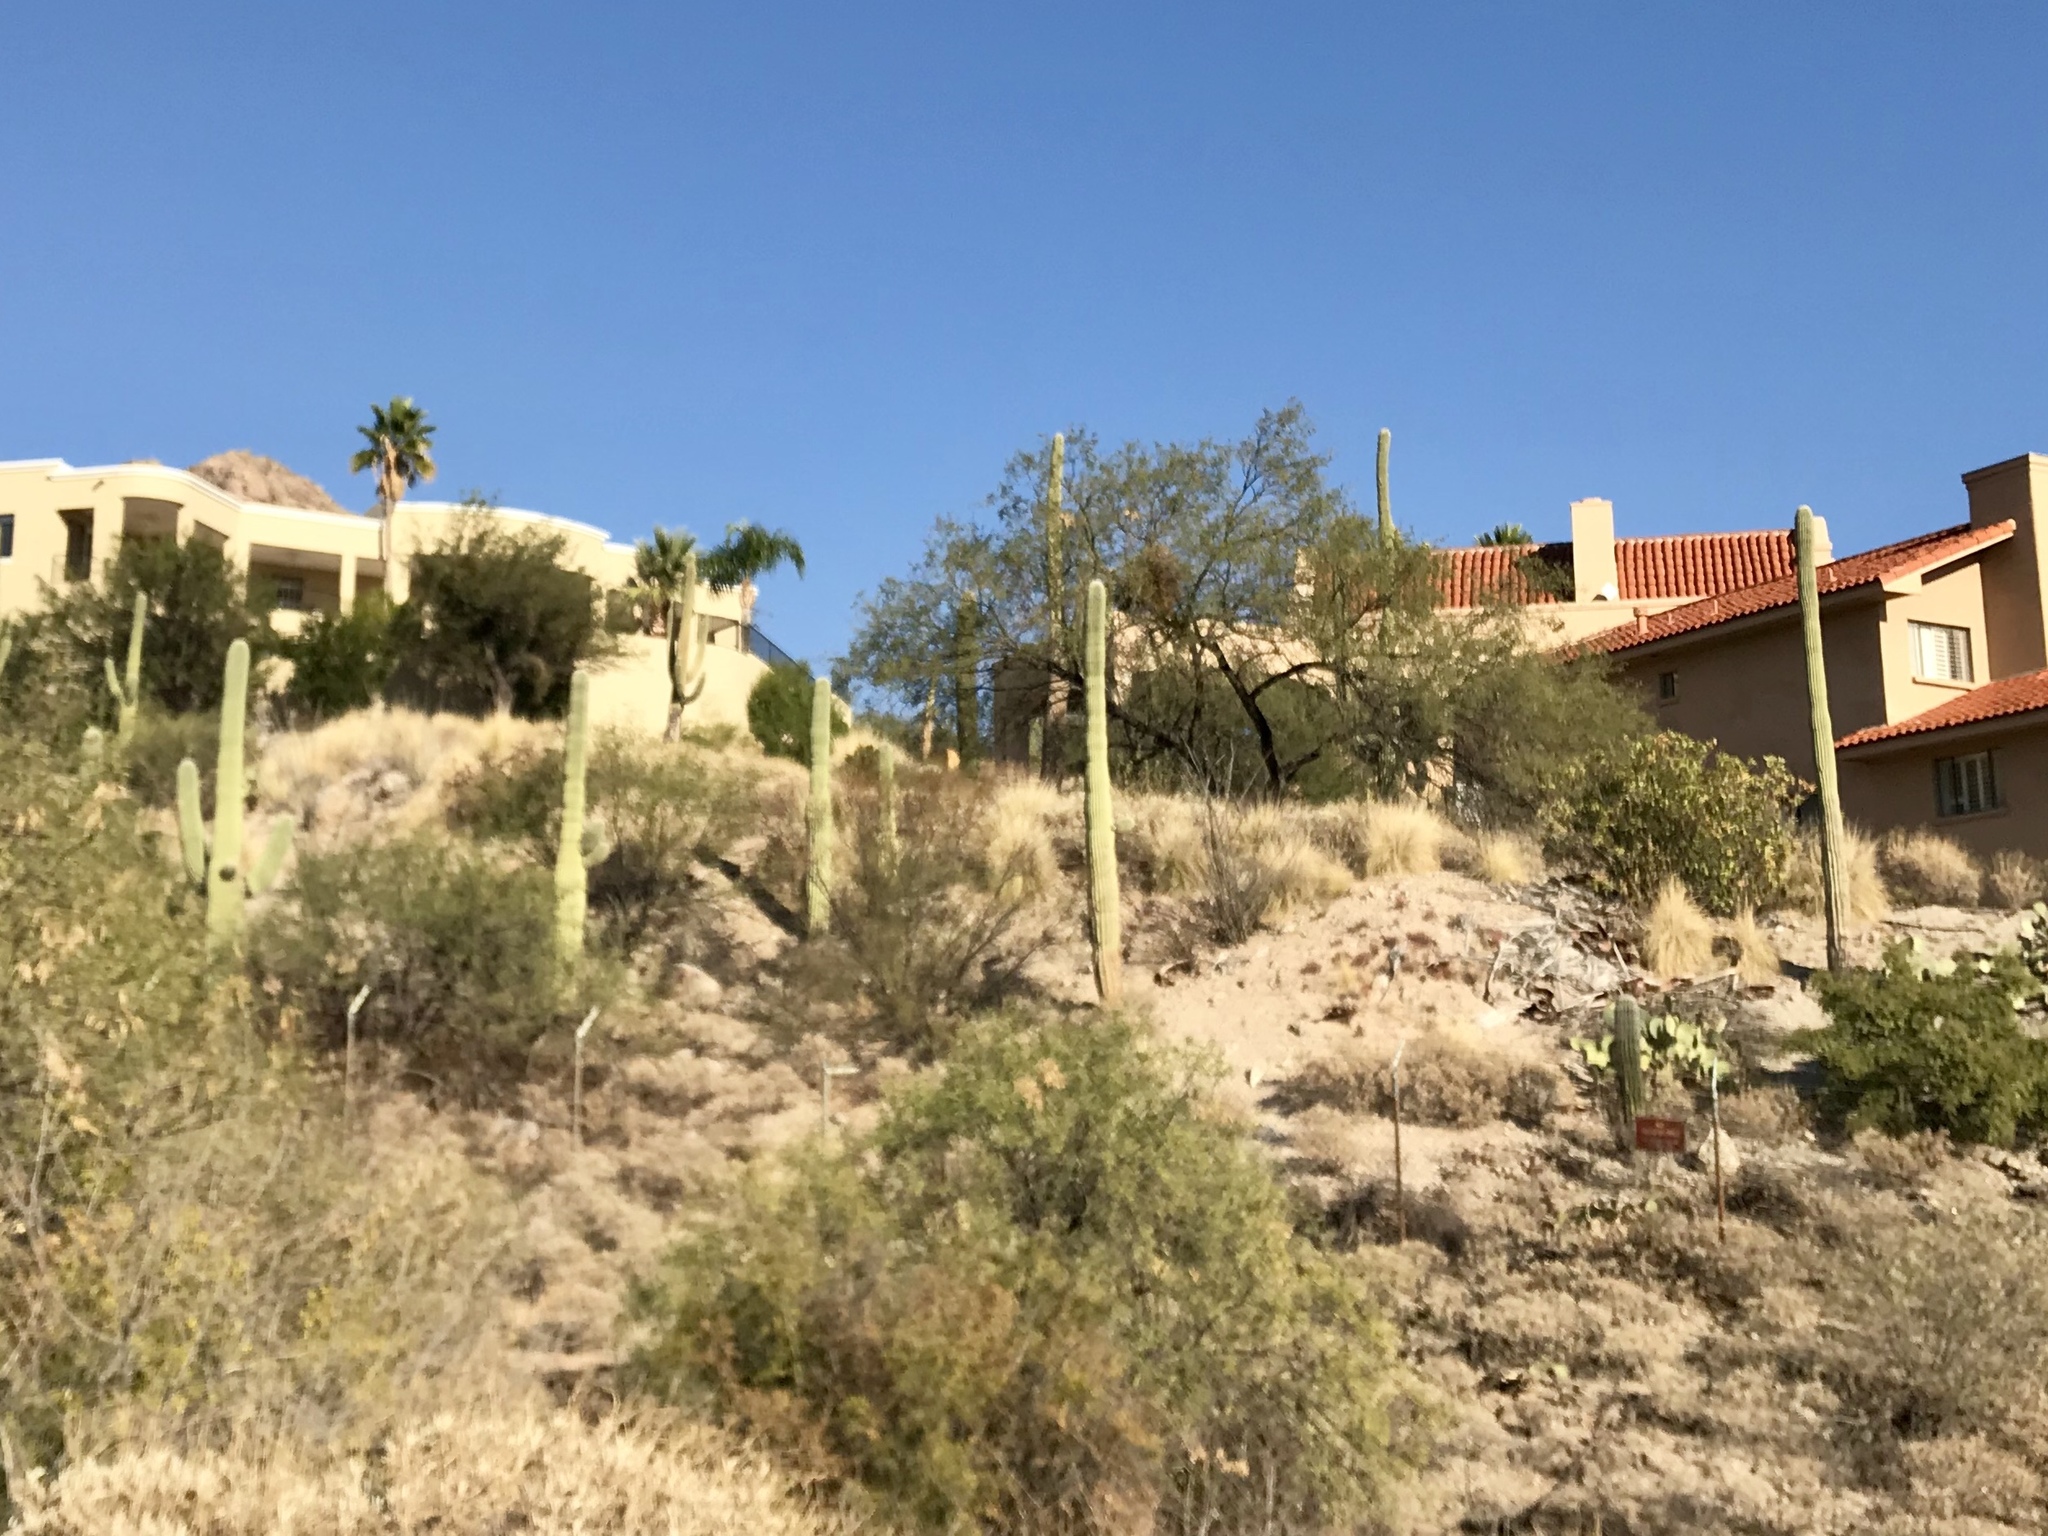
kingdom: Plantae
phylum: Tracheophyta
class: Magnoliopsida
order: Caryophyllales
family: Cactaceae
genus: Carnegiea
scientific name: Carnegiea gigantea
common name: Saguaro
